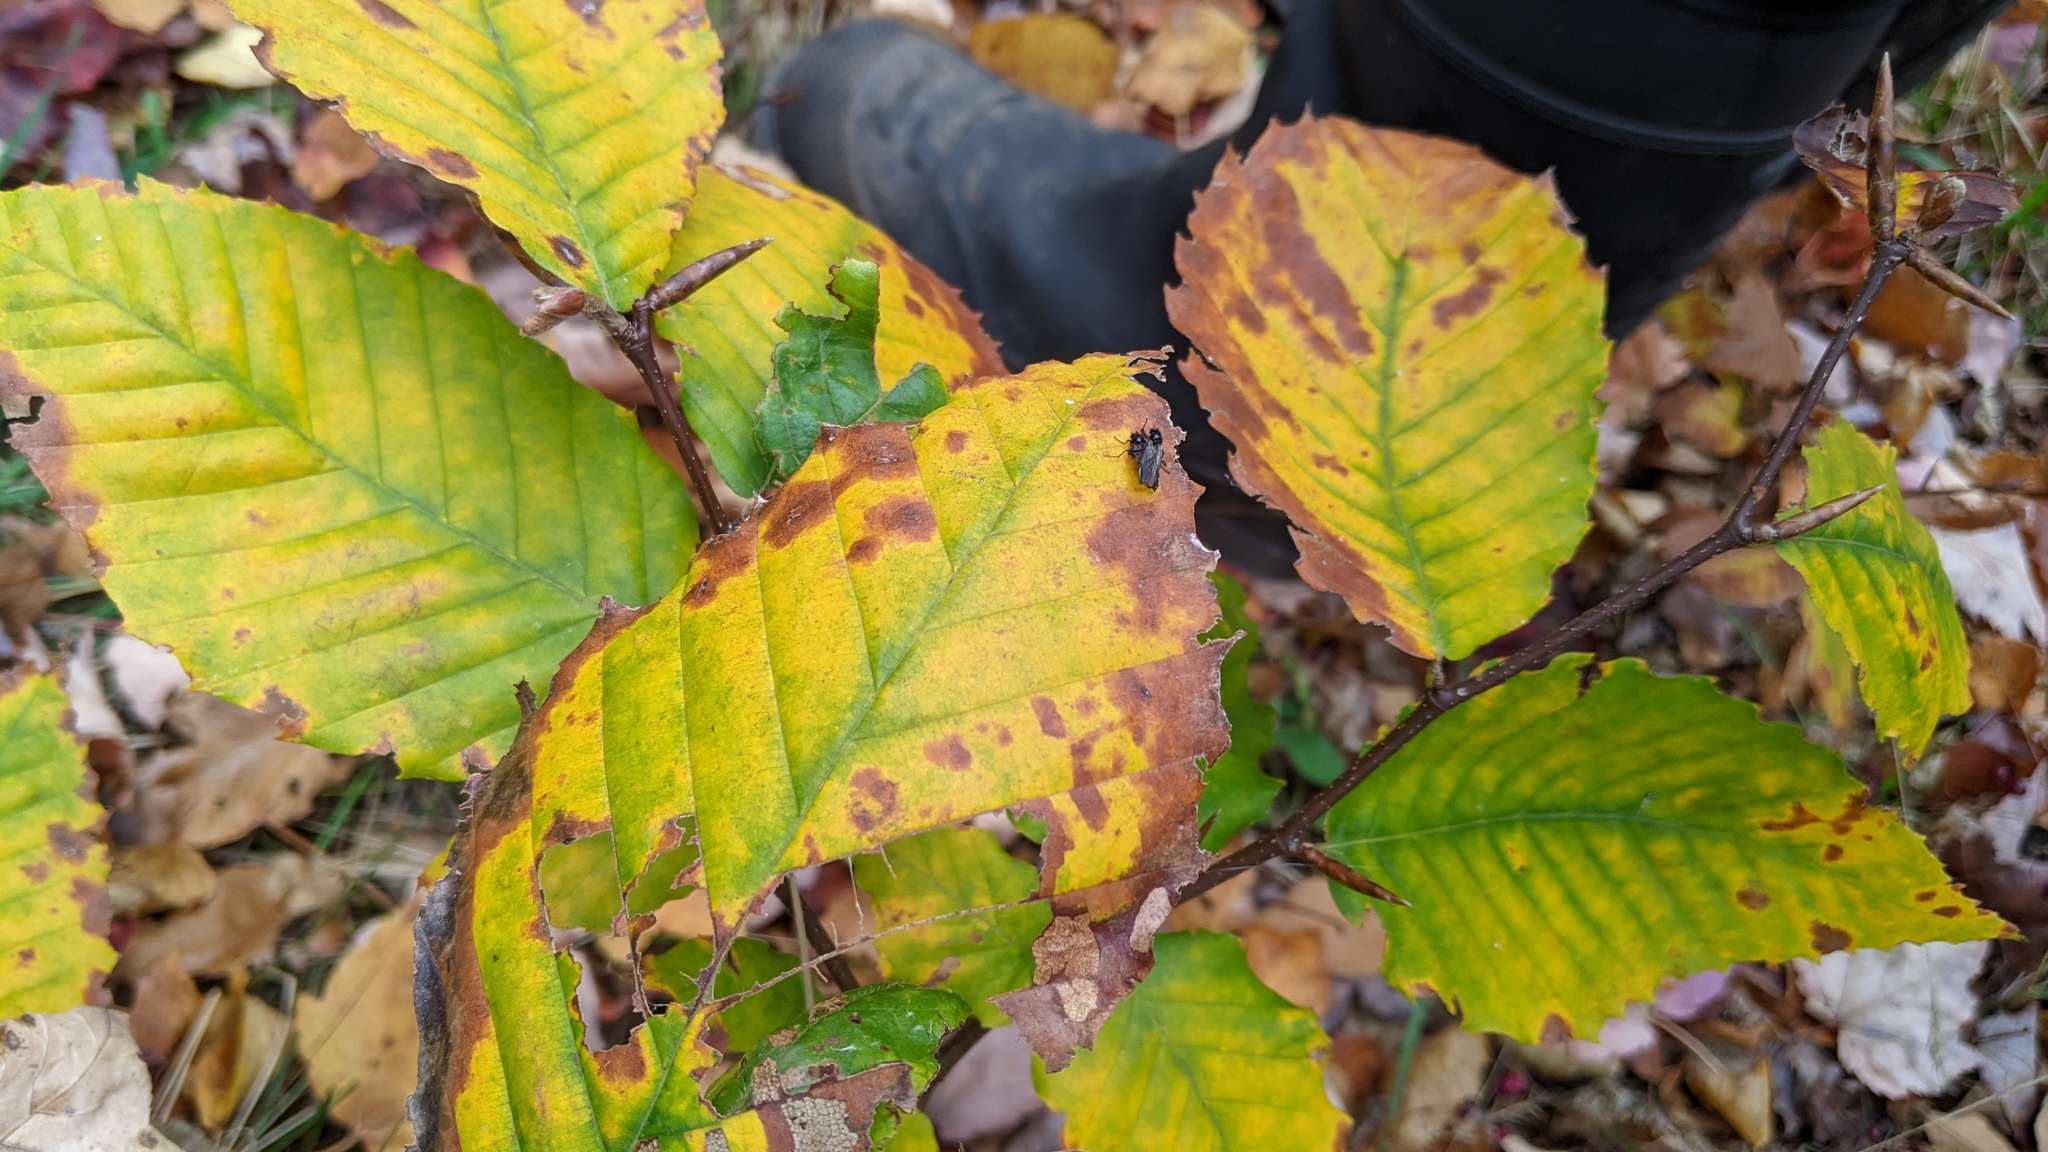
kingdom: Plantae
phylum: Tracheophyta
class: Magnoliopsida
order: Fagales
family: Fagaceae
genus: Fagus
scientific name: Fagus grandifolia
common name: American beech
